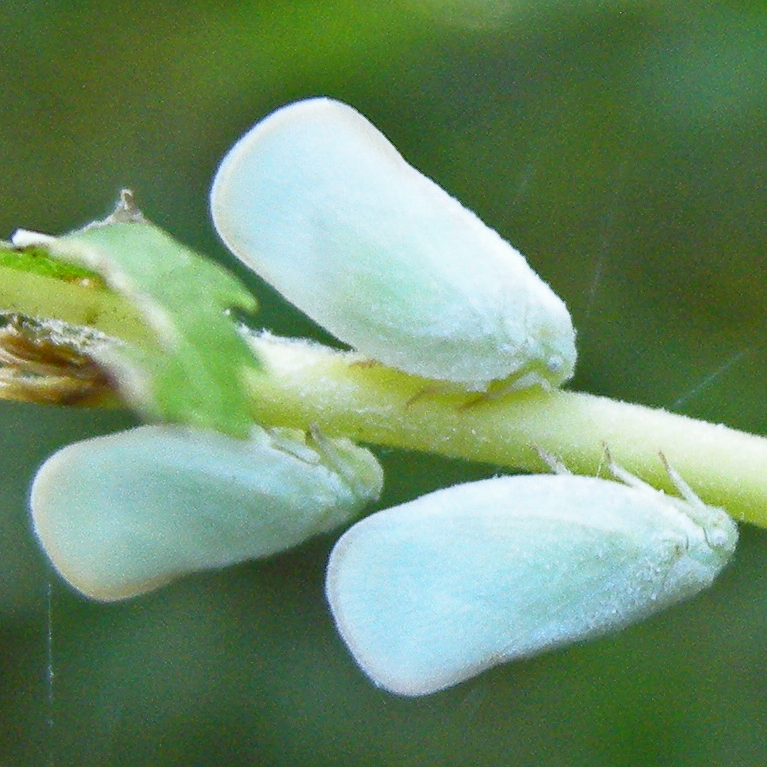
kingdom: Animalia
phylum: Arthropoda
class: Insecta
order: Hemiptera
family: Flatidae
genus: Ormenoides
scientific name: Ormenoides venusta
